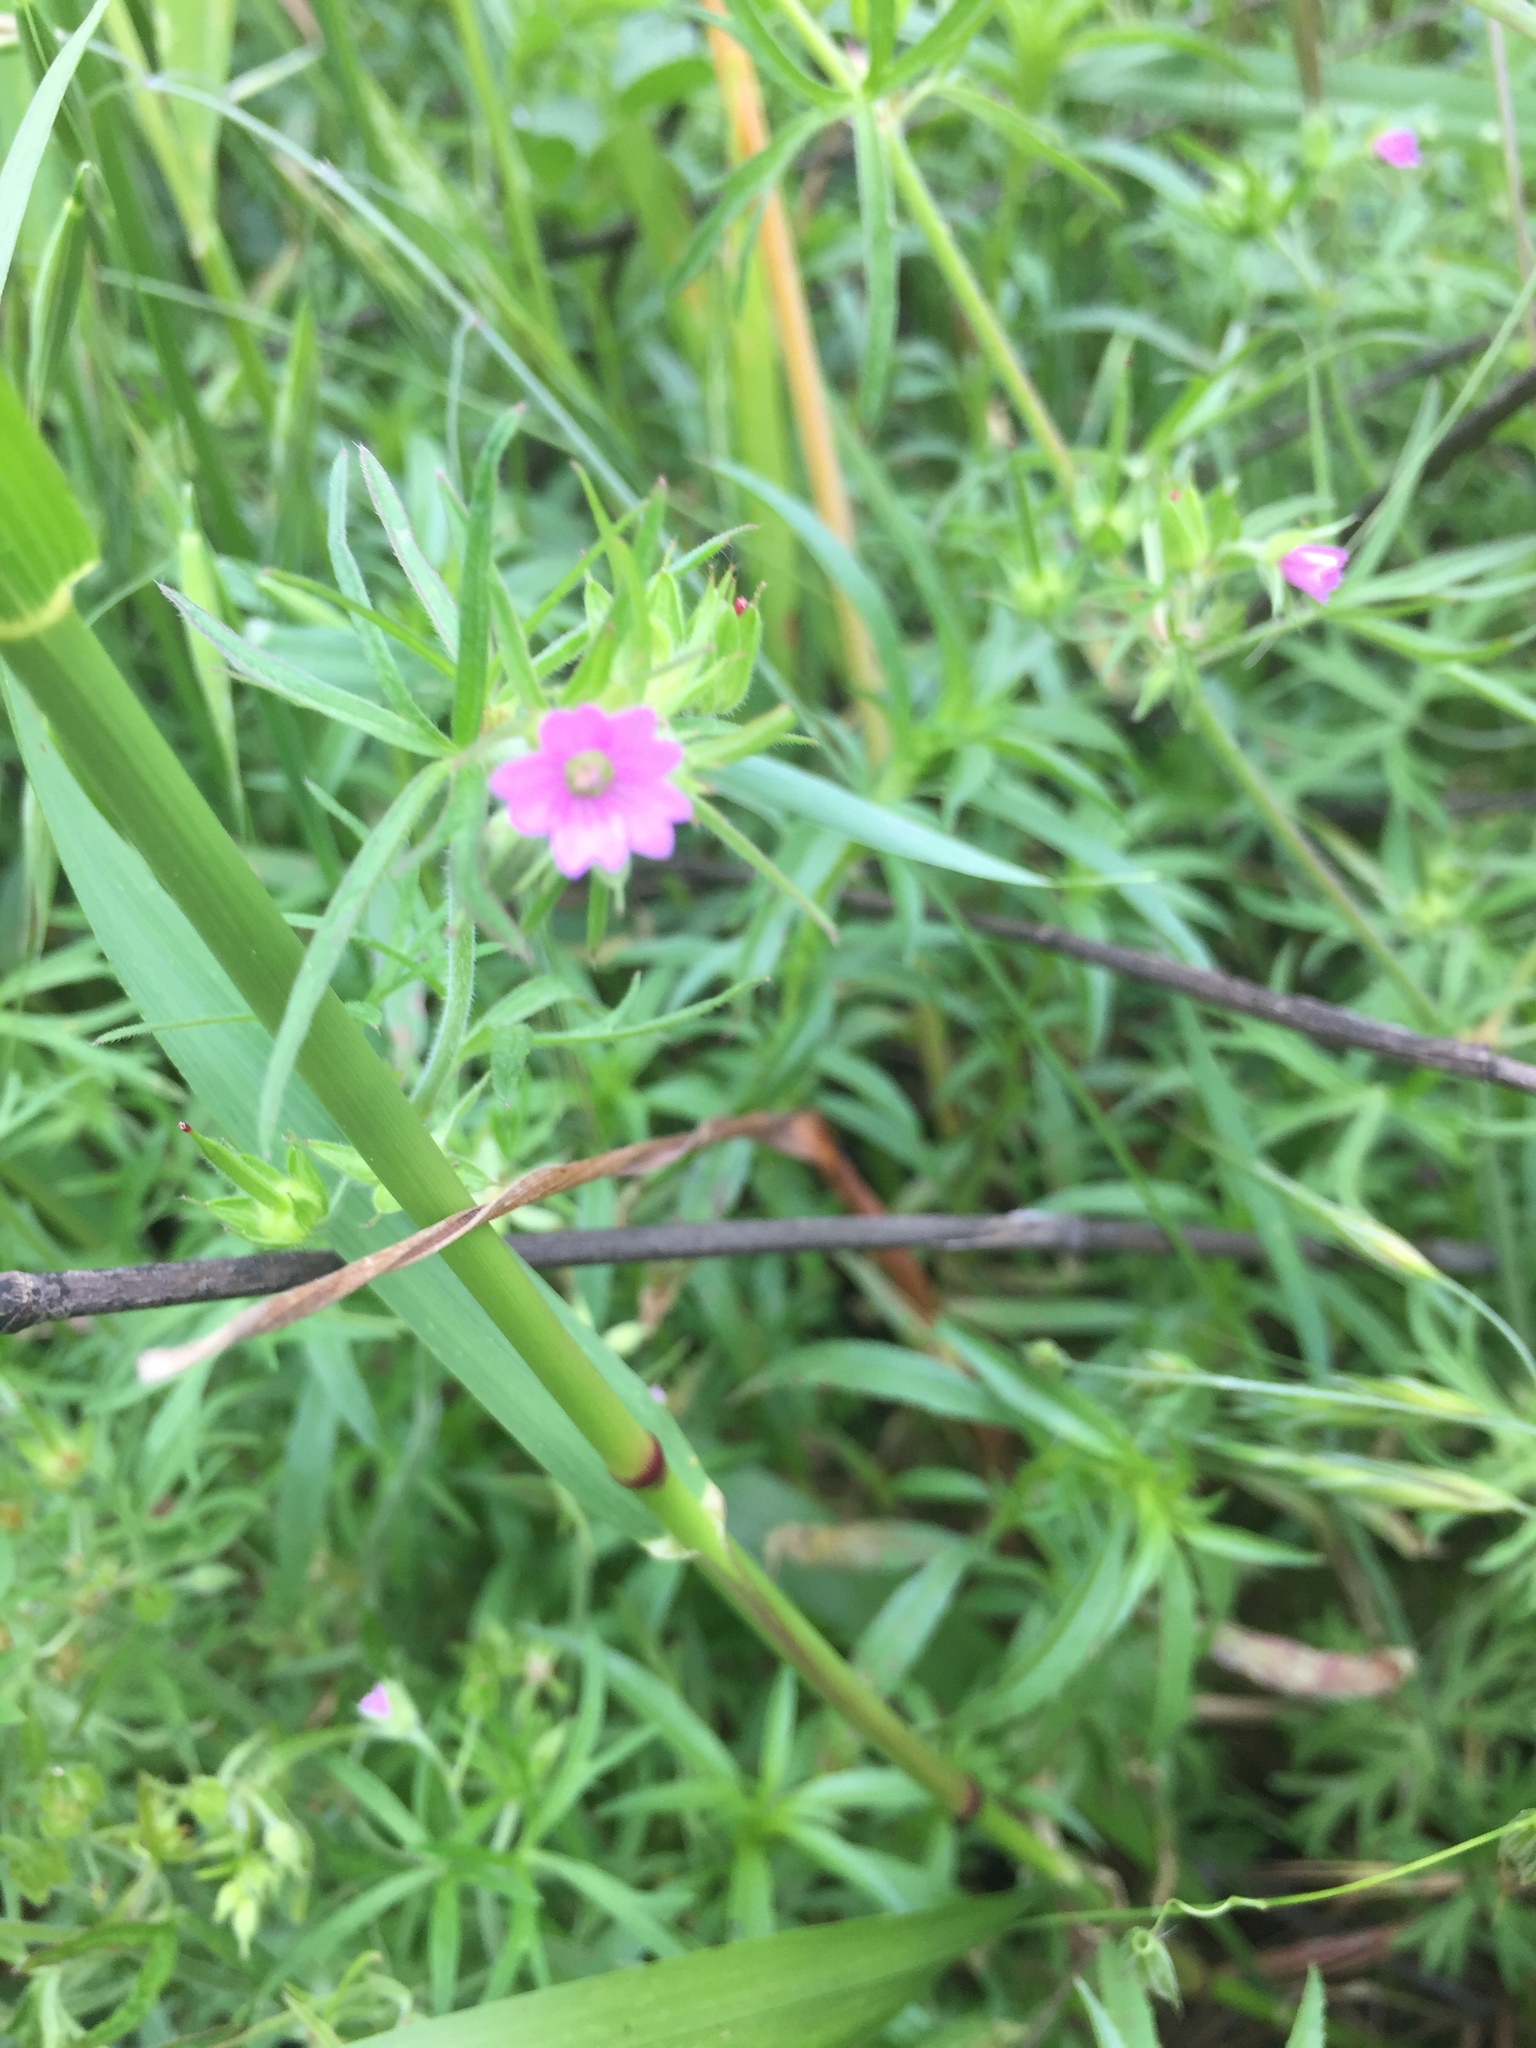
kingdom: Plantae
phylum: Tracheophyta
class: Magnoliopsida
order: Geraniales
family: Geraniaceae
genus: Geranium
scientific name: Geranium dissectum
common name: Cut-leaved crane's-bill
